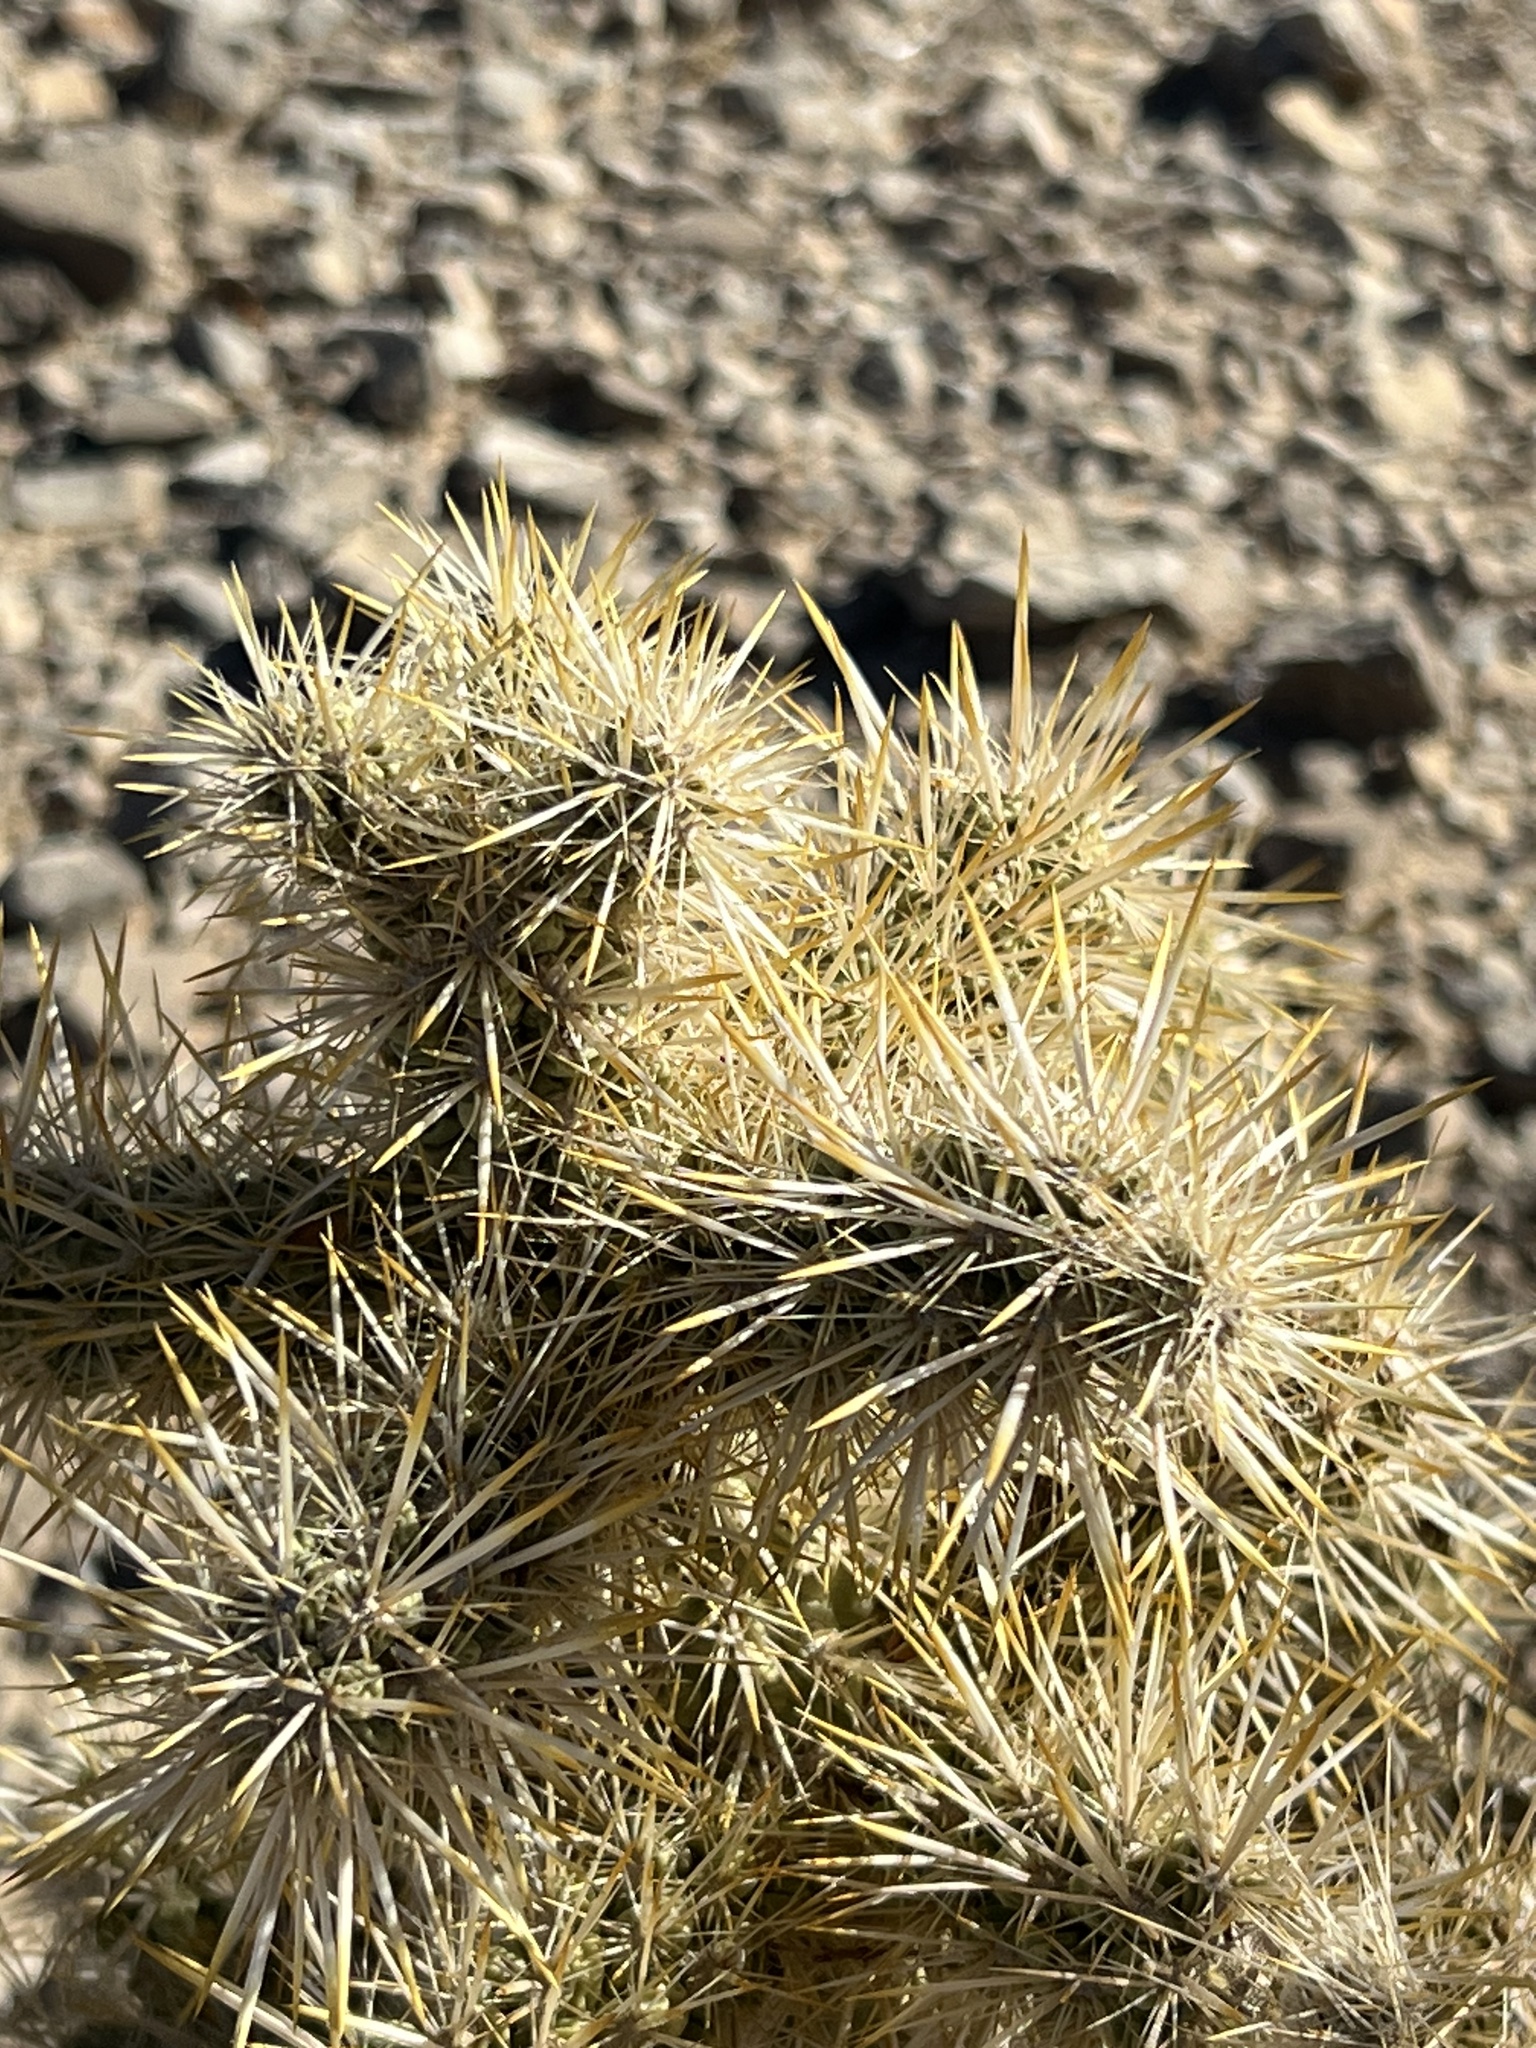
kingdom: Plantae
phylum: Tracheophyta
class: Magnoliopsida
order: Caryophyllales
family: Cactaceae
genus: Cylindropuntia
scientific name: Cylindropuntia echinocarpa
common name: Ground cholla
